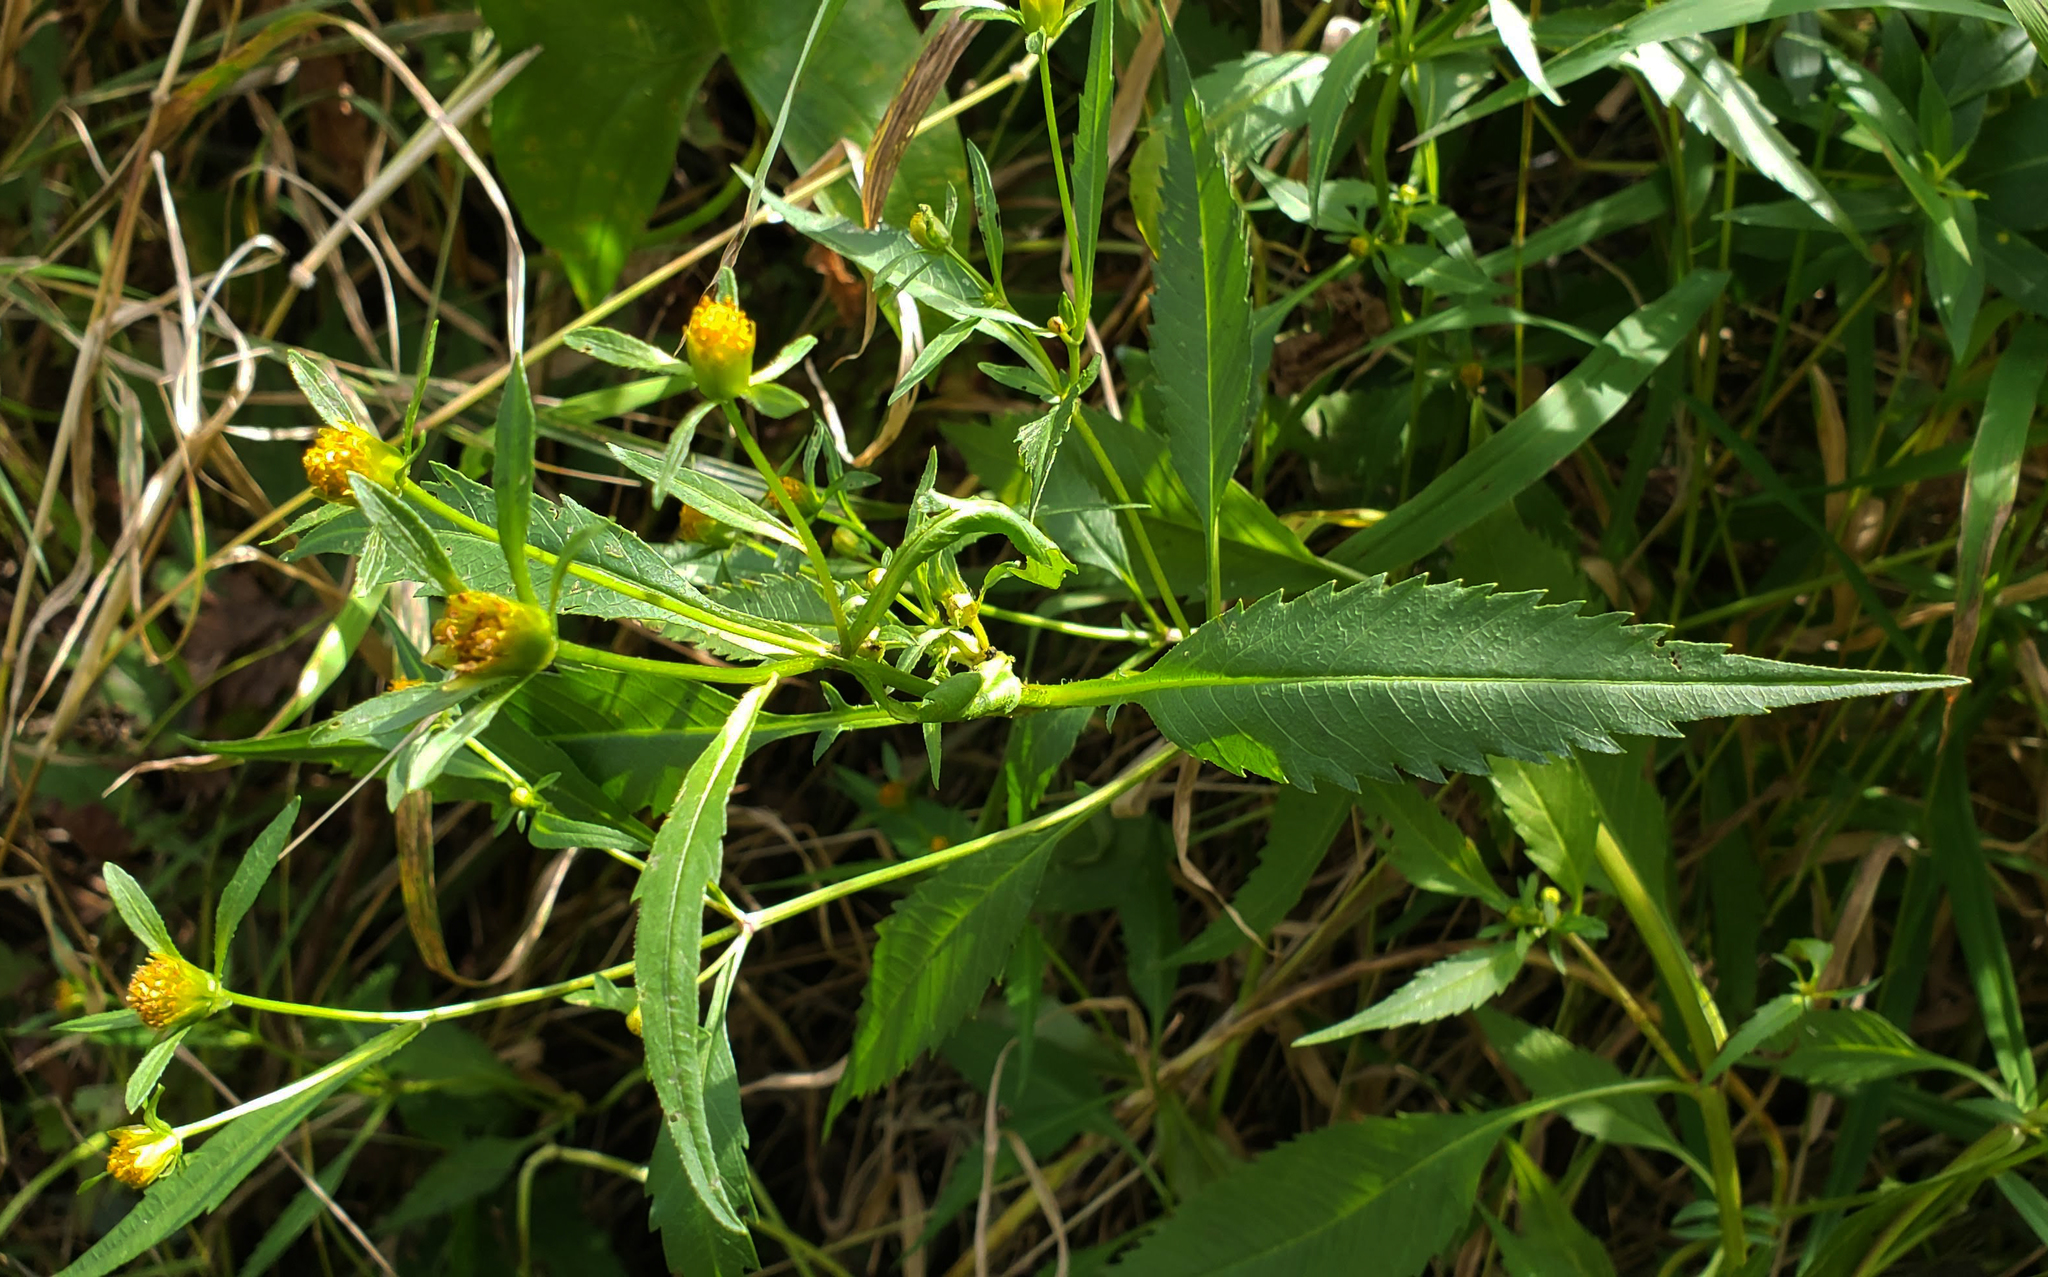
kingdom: Plantae
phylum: Tracheophyta
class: Magnoliopsida
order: Asterales
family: Asteraceae
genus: Bidens
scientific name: Bidens connata
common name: London bur-marigold
